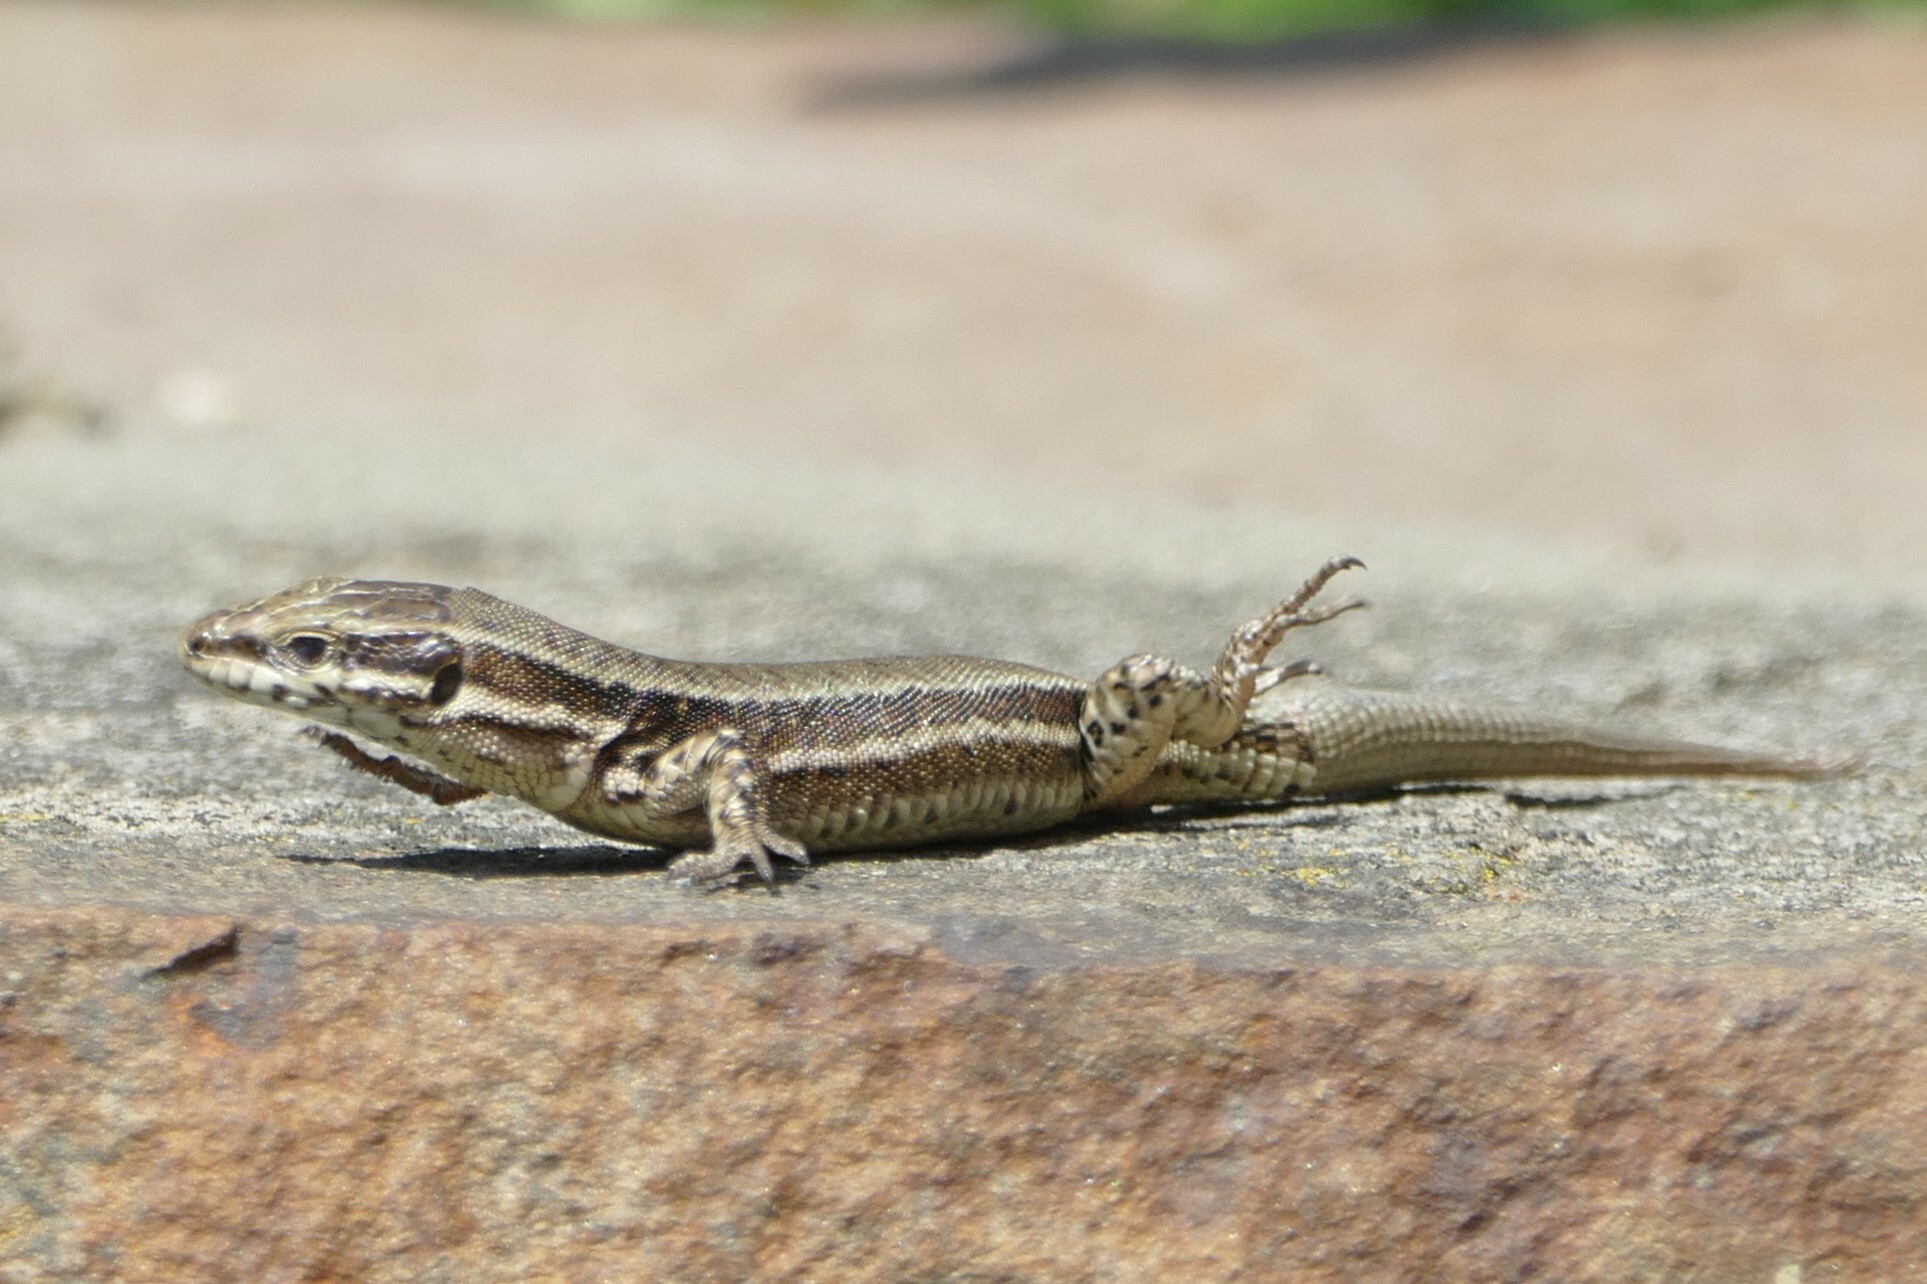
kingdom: Animalia
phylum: Chordata
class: Squamata
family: Lacertidae
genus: Podarcis
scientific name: Podarcis muralis
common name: Common wall lizard
